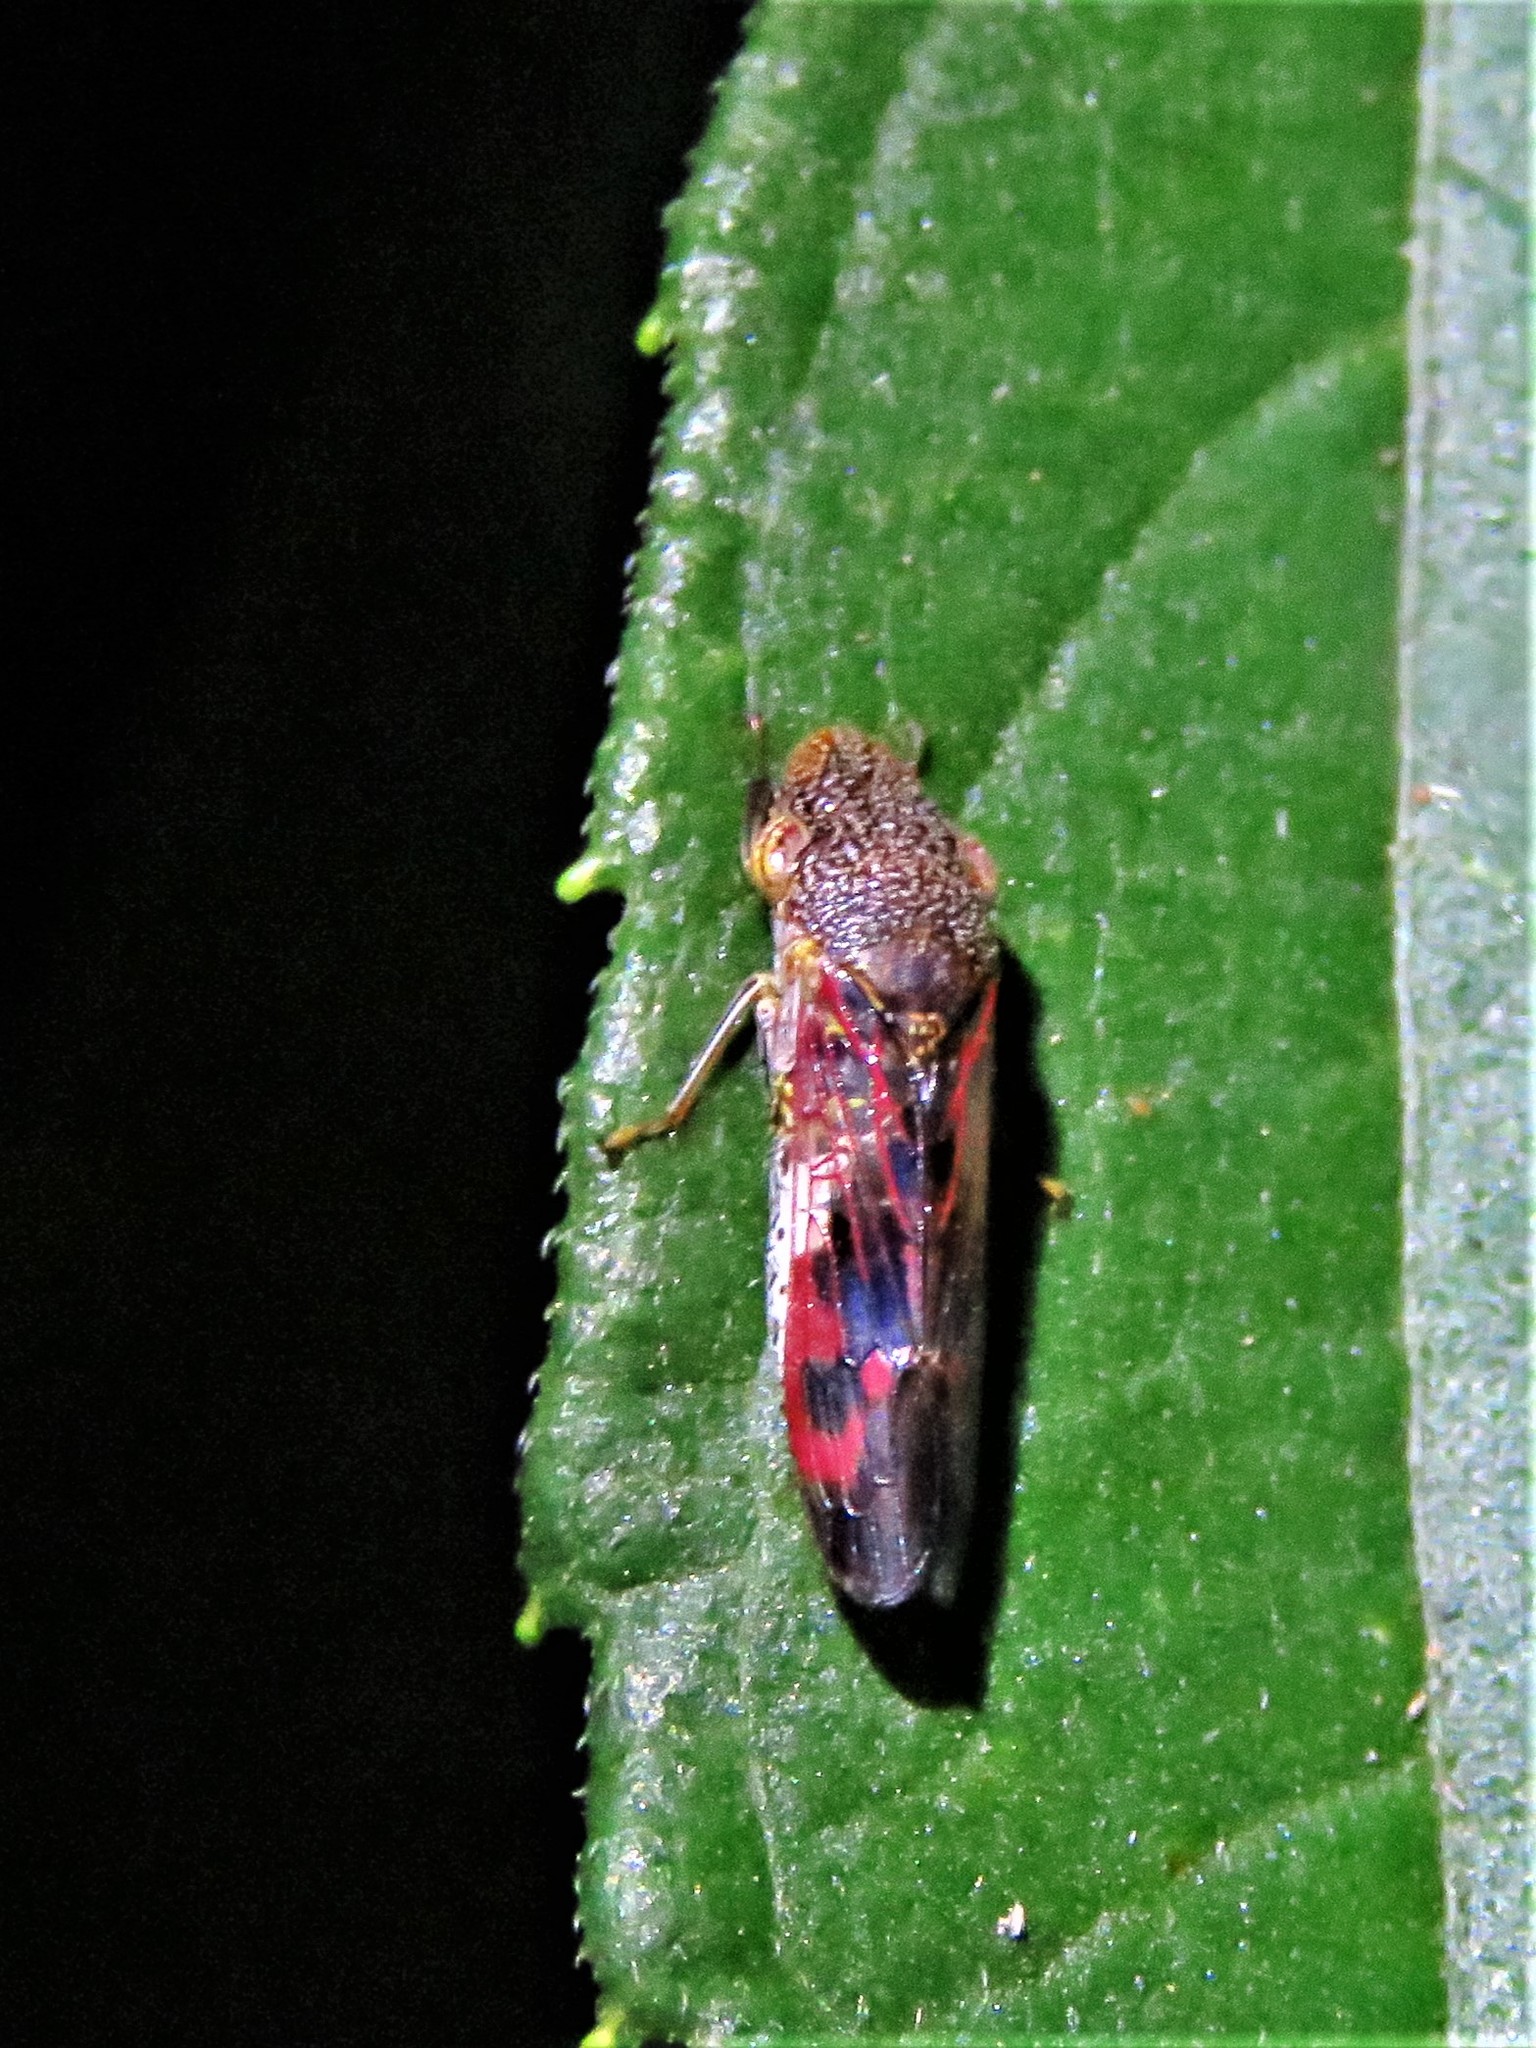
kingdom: Animalia
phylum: Arthropoda
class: Insecta
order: Hemiptera
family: Cicadellidae
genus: Homalodisca
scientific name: Homalodisca vitripennis
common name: Glassy-winged sharpshooter
